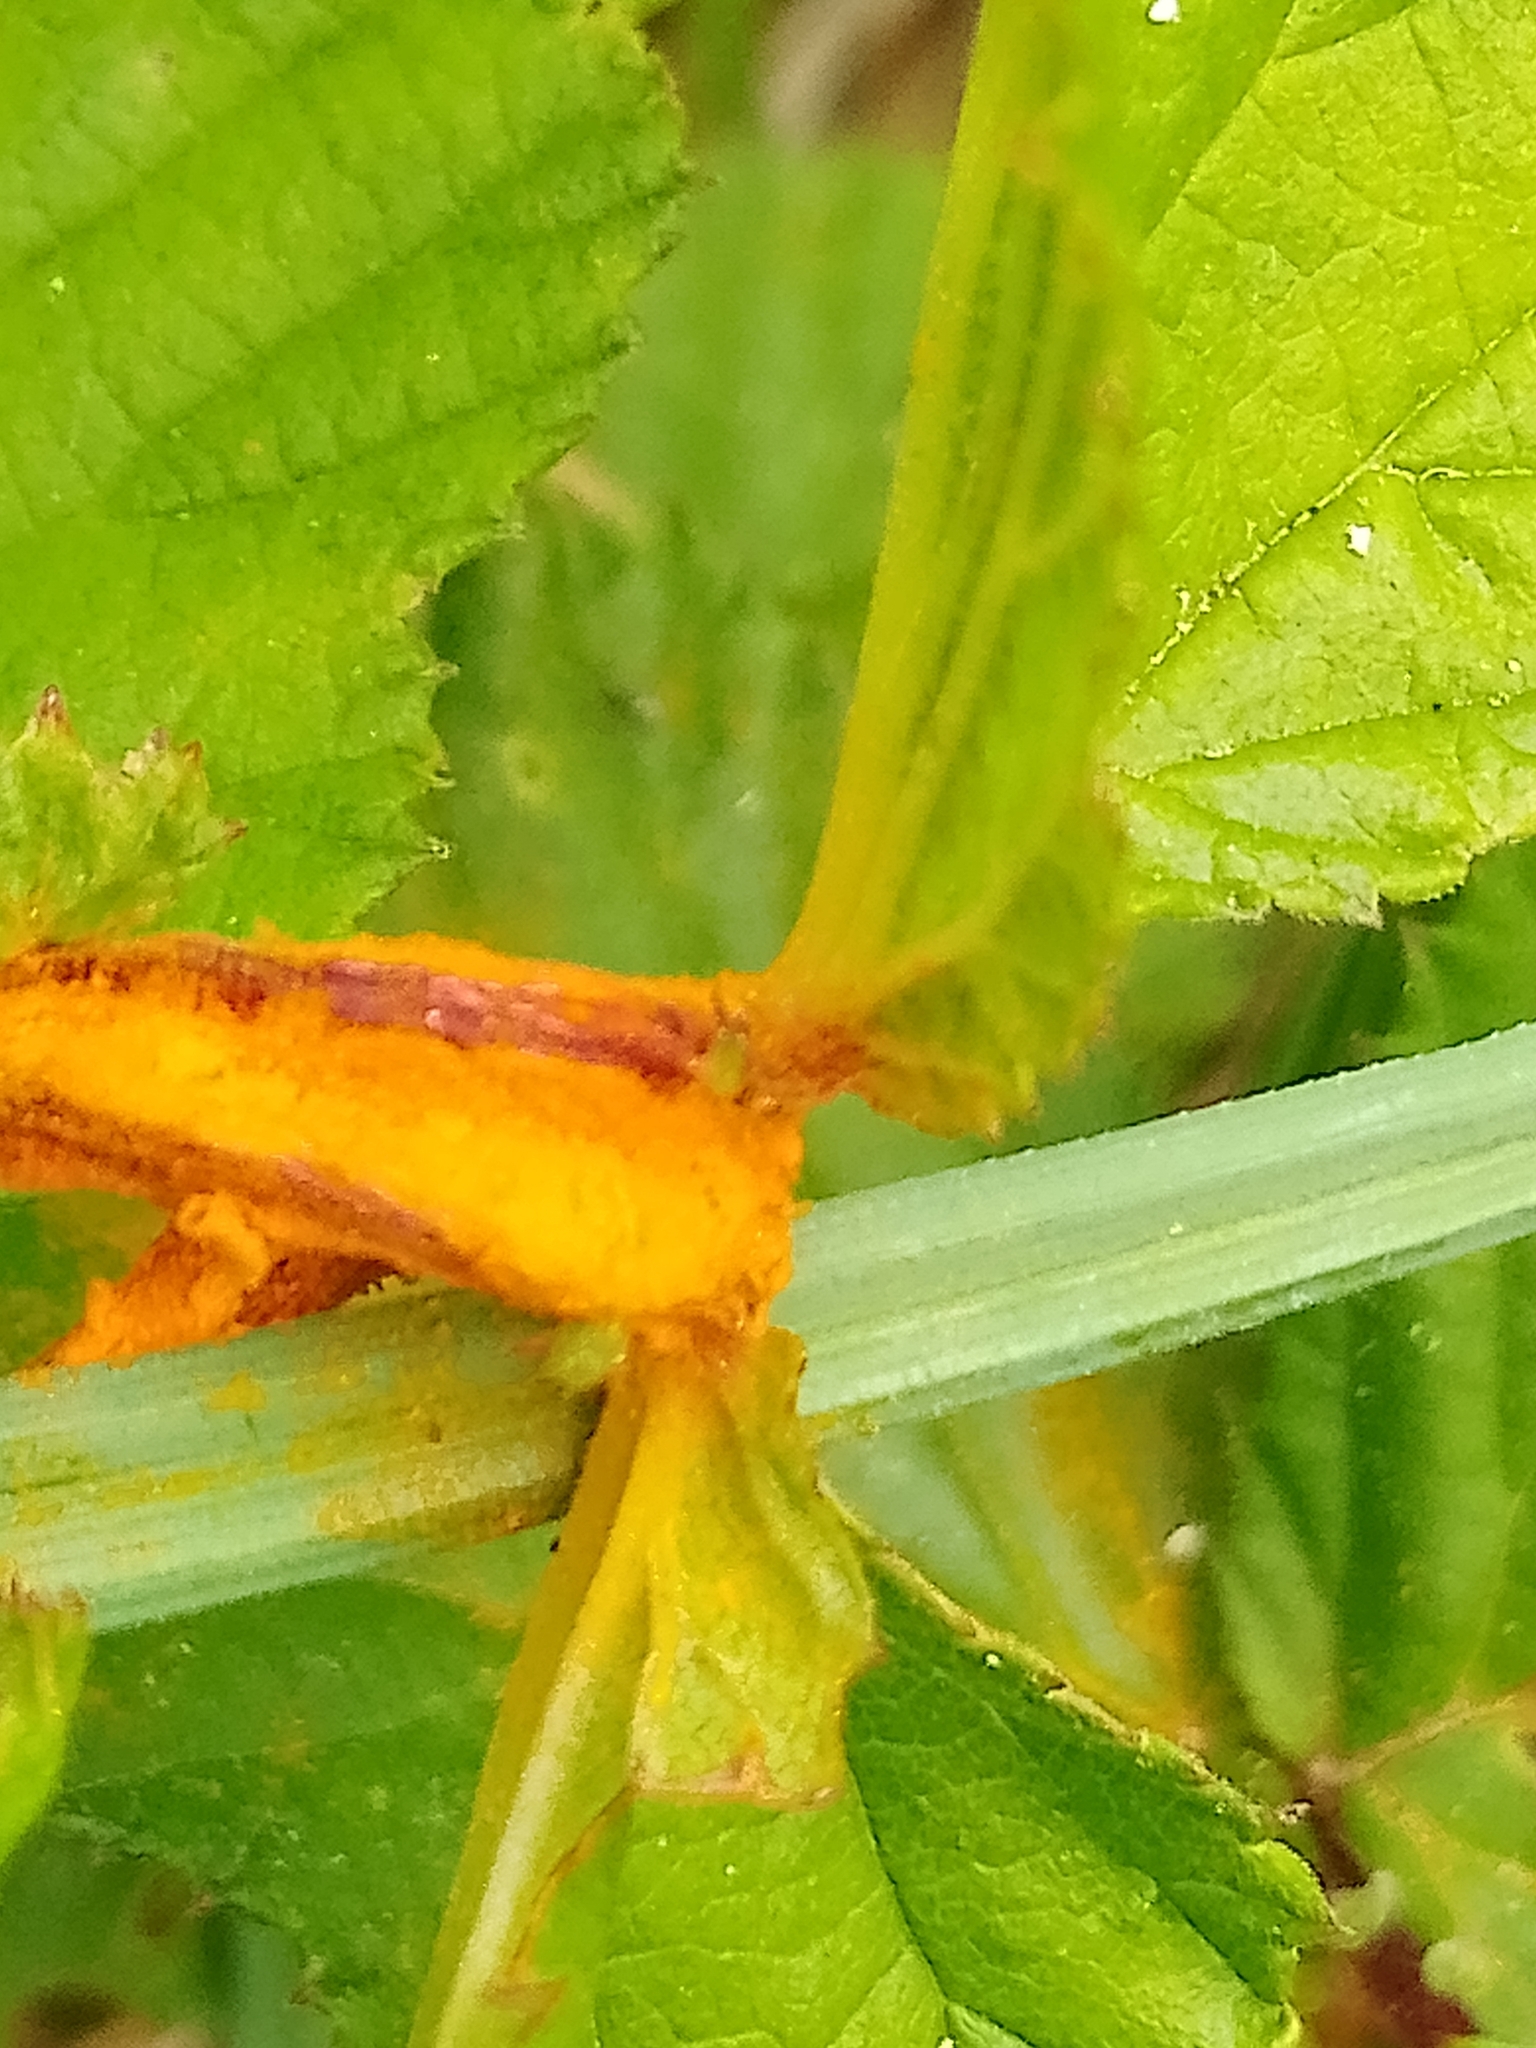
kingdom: Fungi
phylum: Basidiomycota
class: Pucciniomycetes
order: Pucciniales
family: Raveneliaceae
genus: Triphragmium
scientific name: Triphragmium ulmariae
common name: Meadowsweet rust
